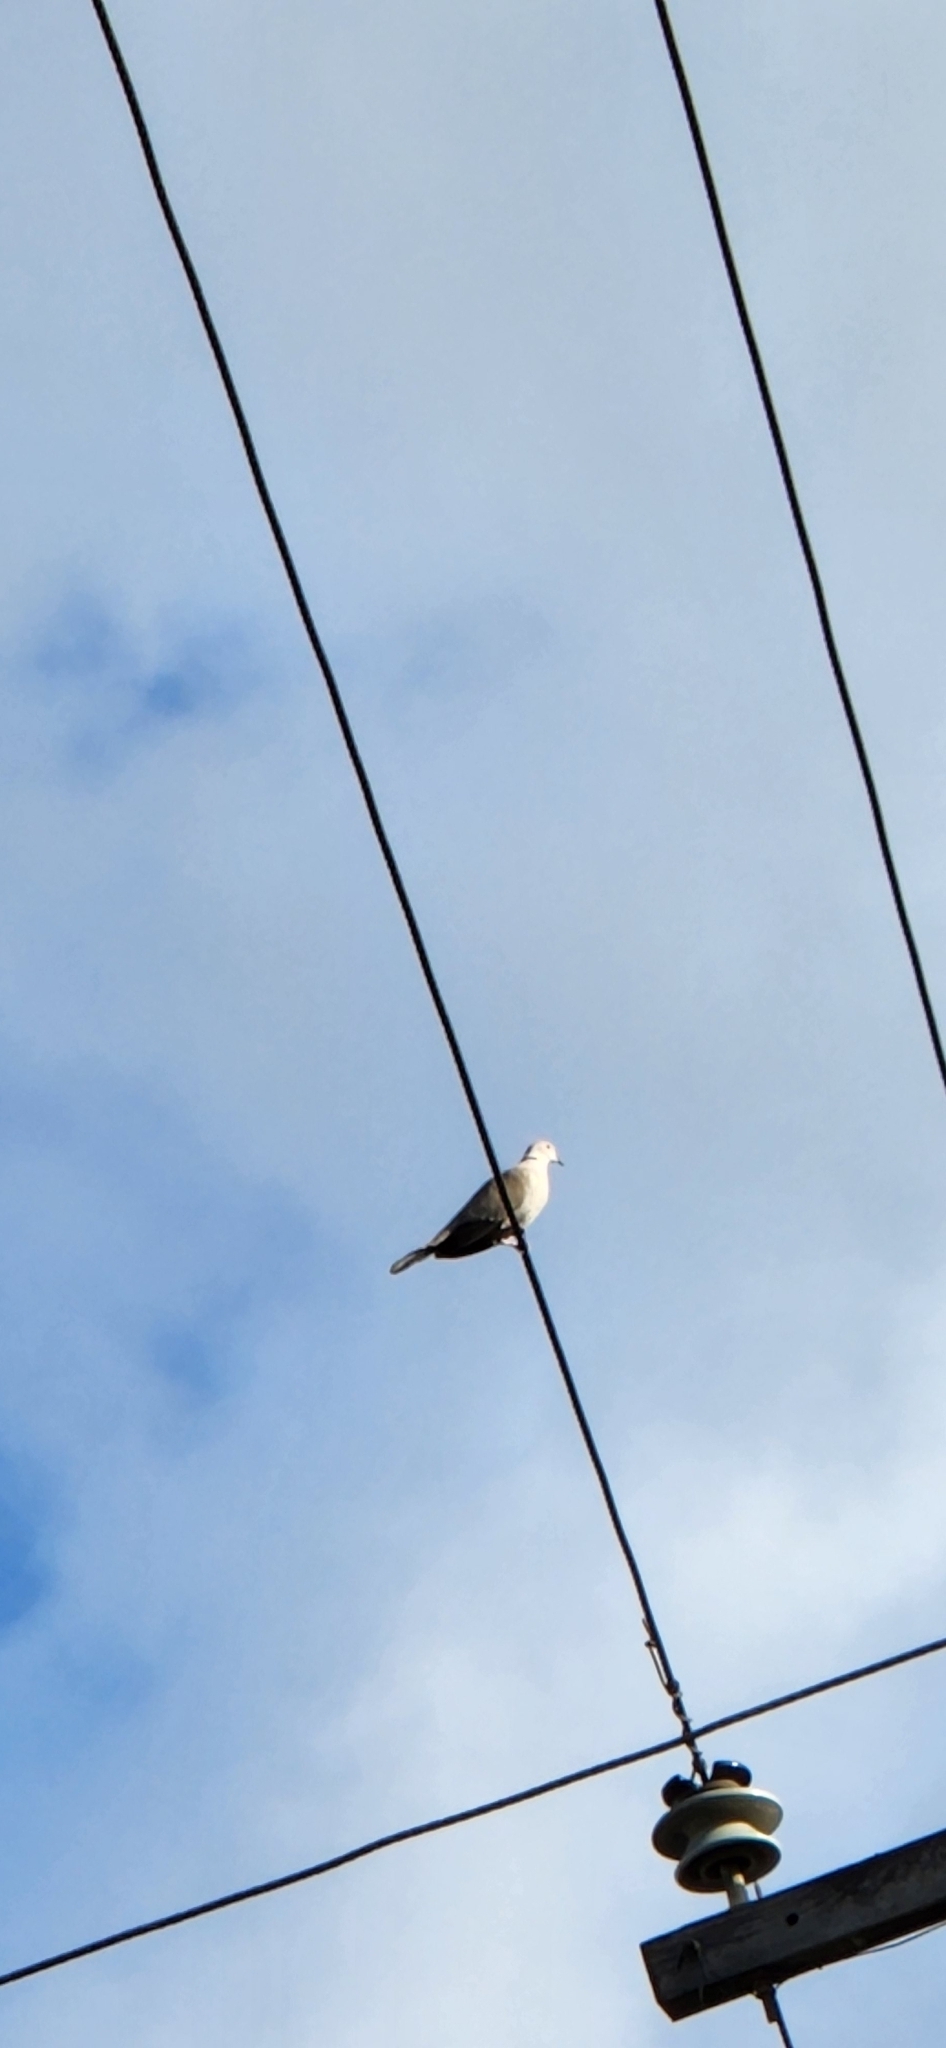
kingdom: Animalia
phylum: Chordata
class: Aves
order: Columbiformes
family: Columbidae
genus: Streptopelia
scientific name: Streptopelia decaocto
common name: Eurasian collared dove
